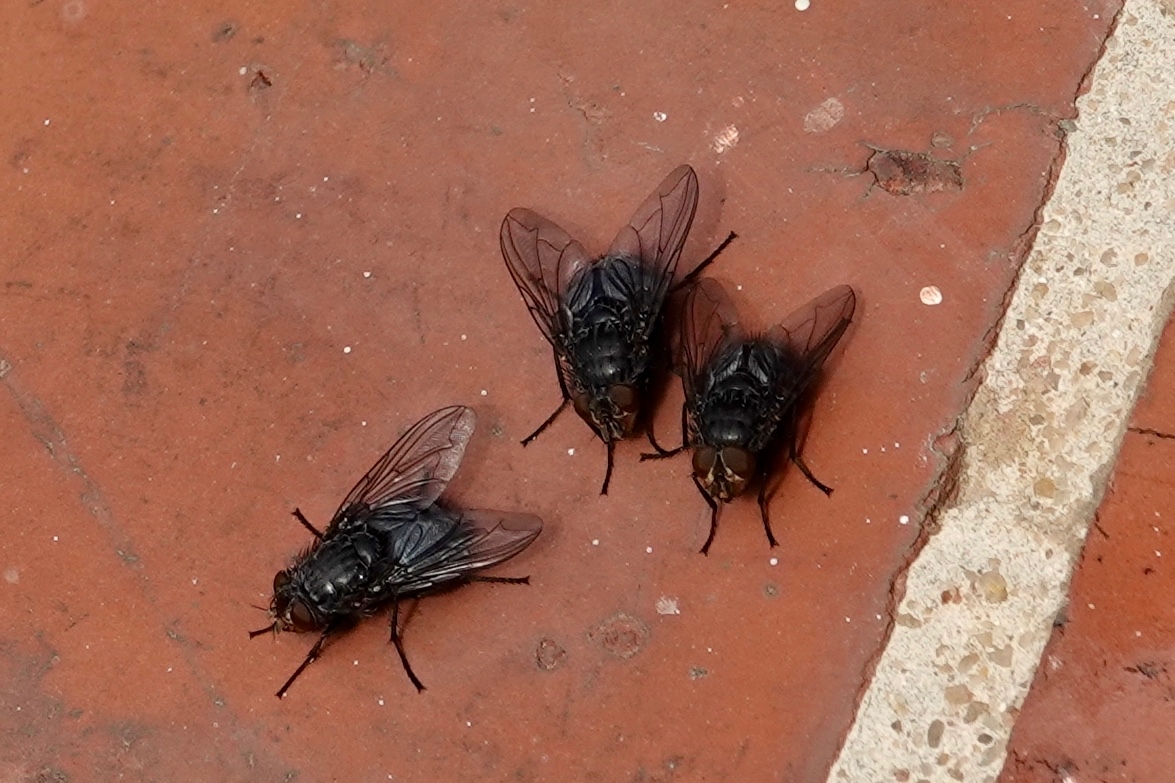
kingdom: Animalia
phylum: Arthropoda
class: Insecta
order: Diptera
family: Calliphoridae
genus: Calliphora
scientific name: Calliphora vicina
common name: Common blow flie
